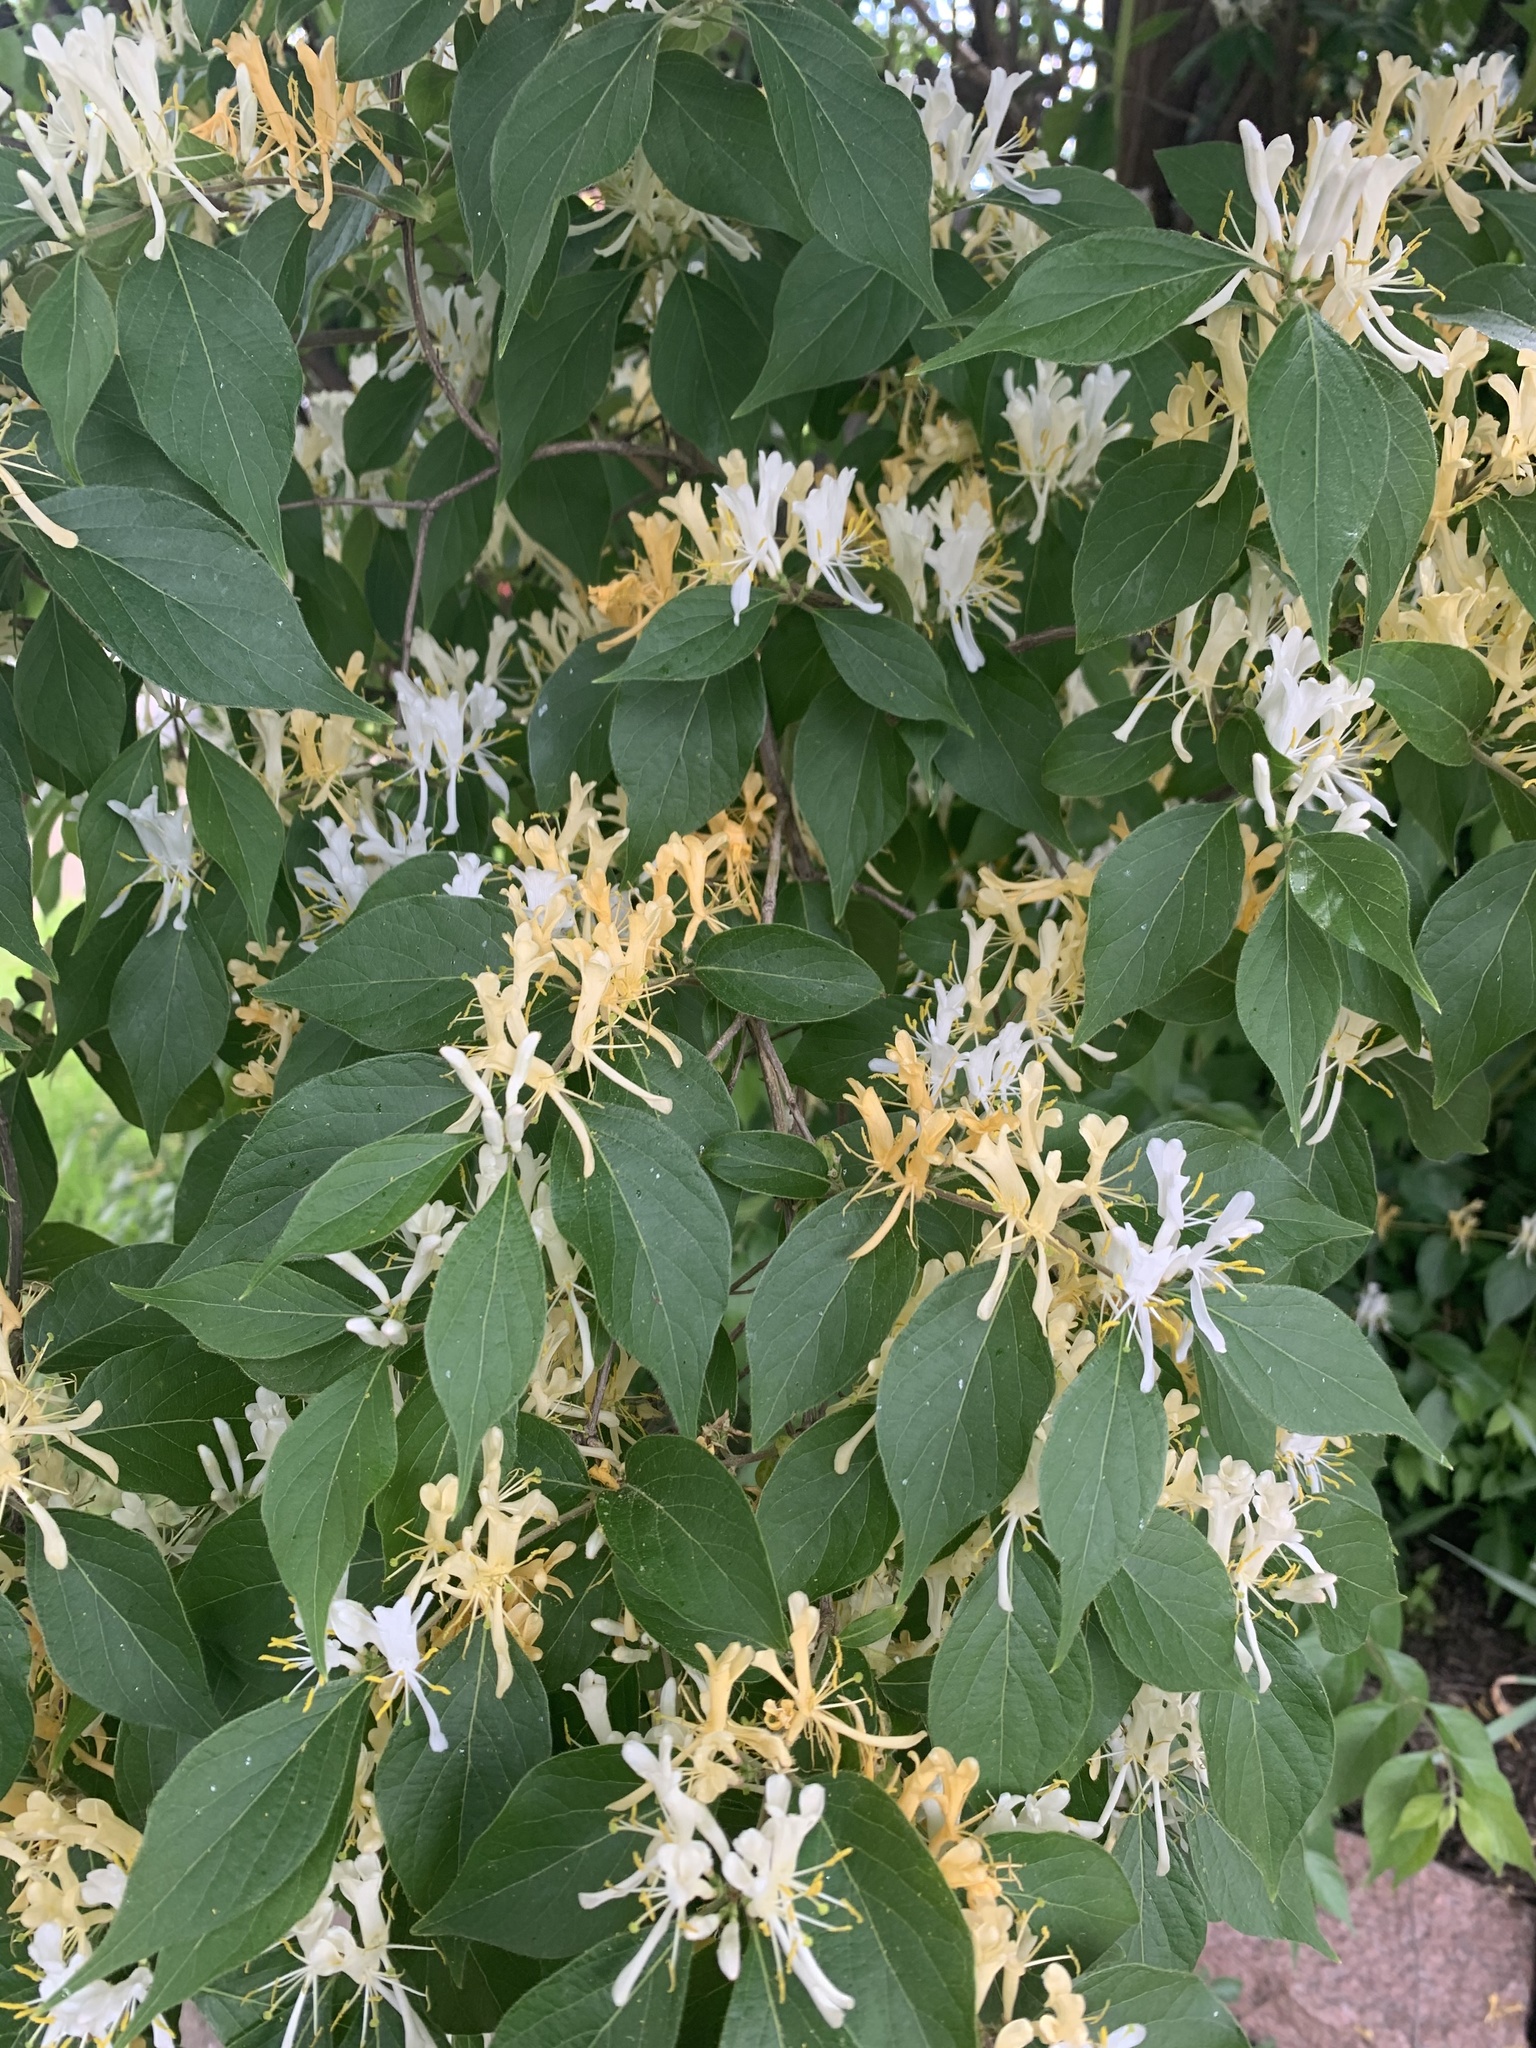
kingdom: Plantae
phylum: Tracheophyta
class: Magnoliopsida
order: Dipsacales
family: Caprifoliaceae
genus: Lonicera
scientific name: Lonicera maackii
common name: Amur honeysuckle
